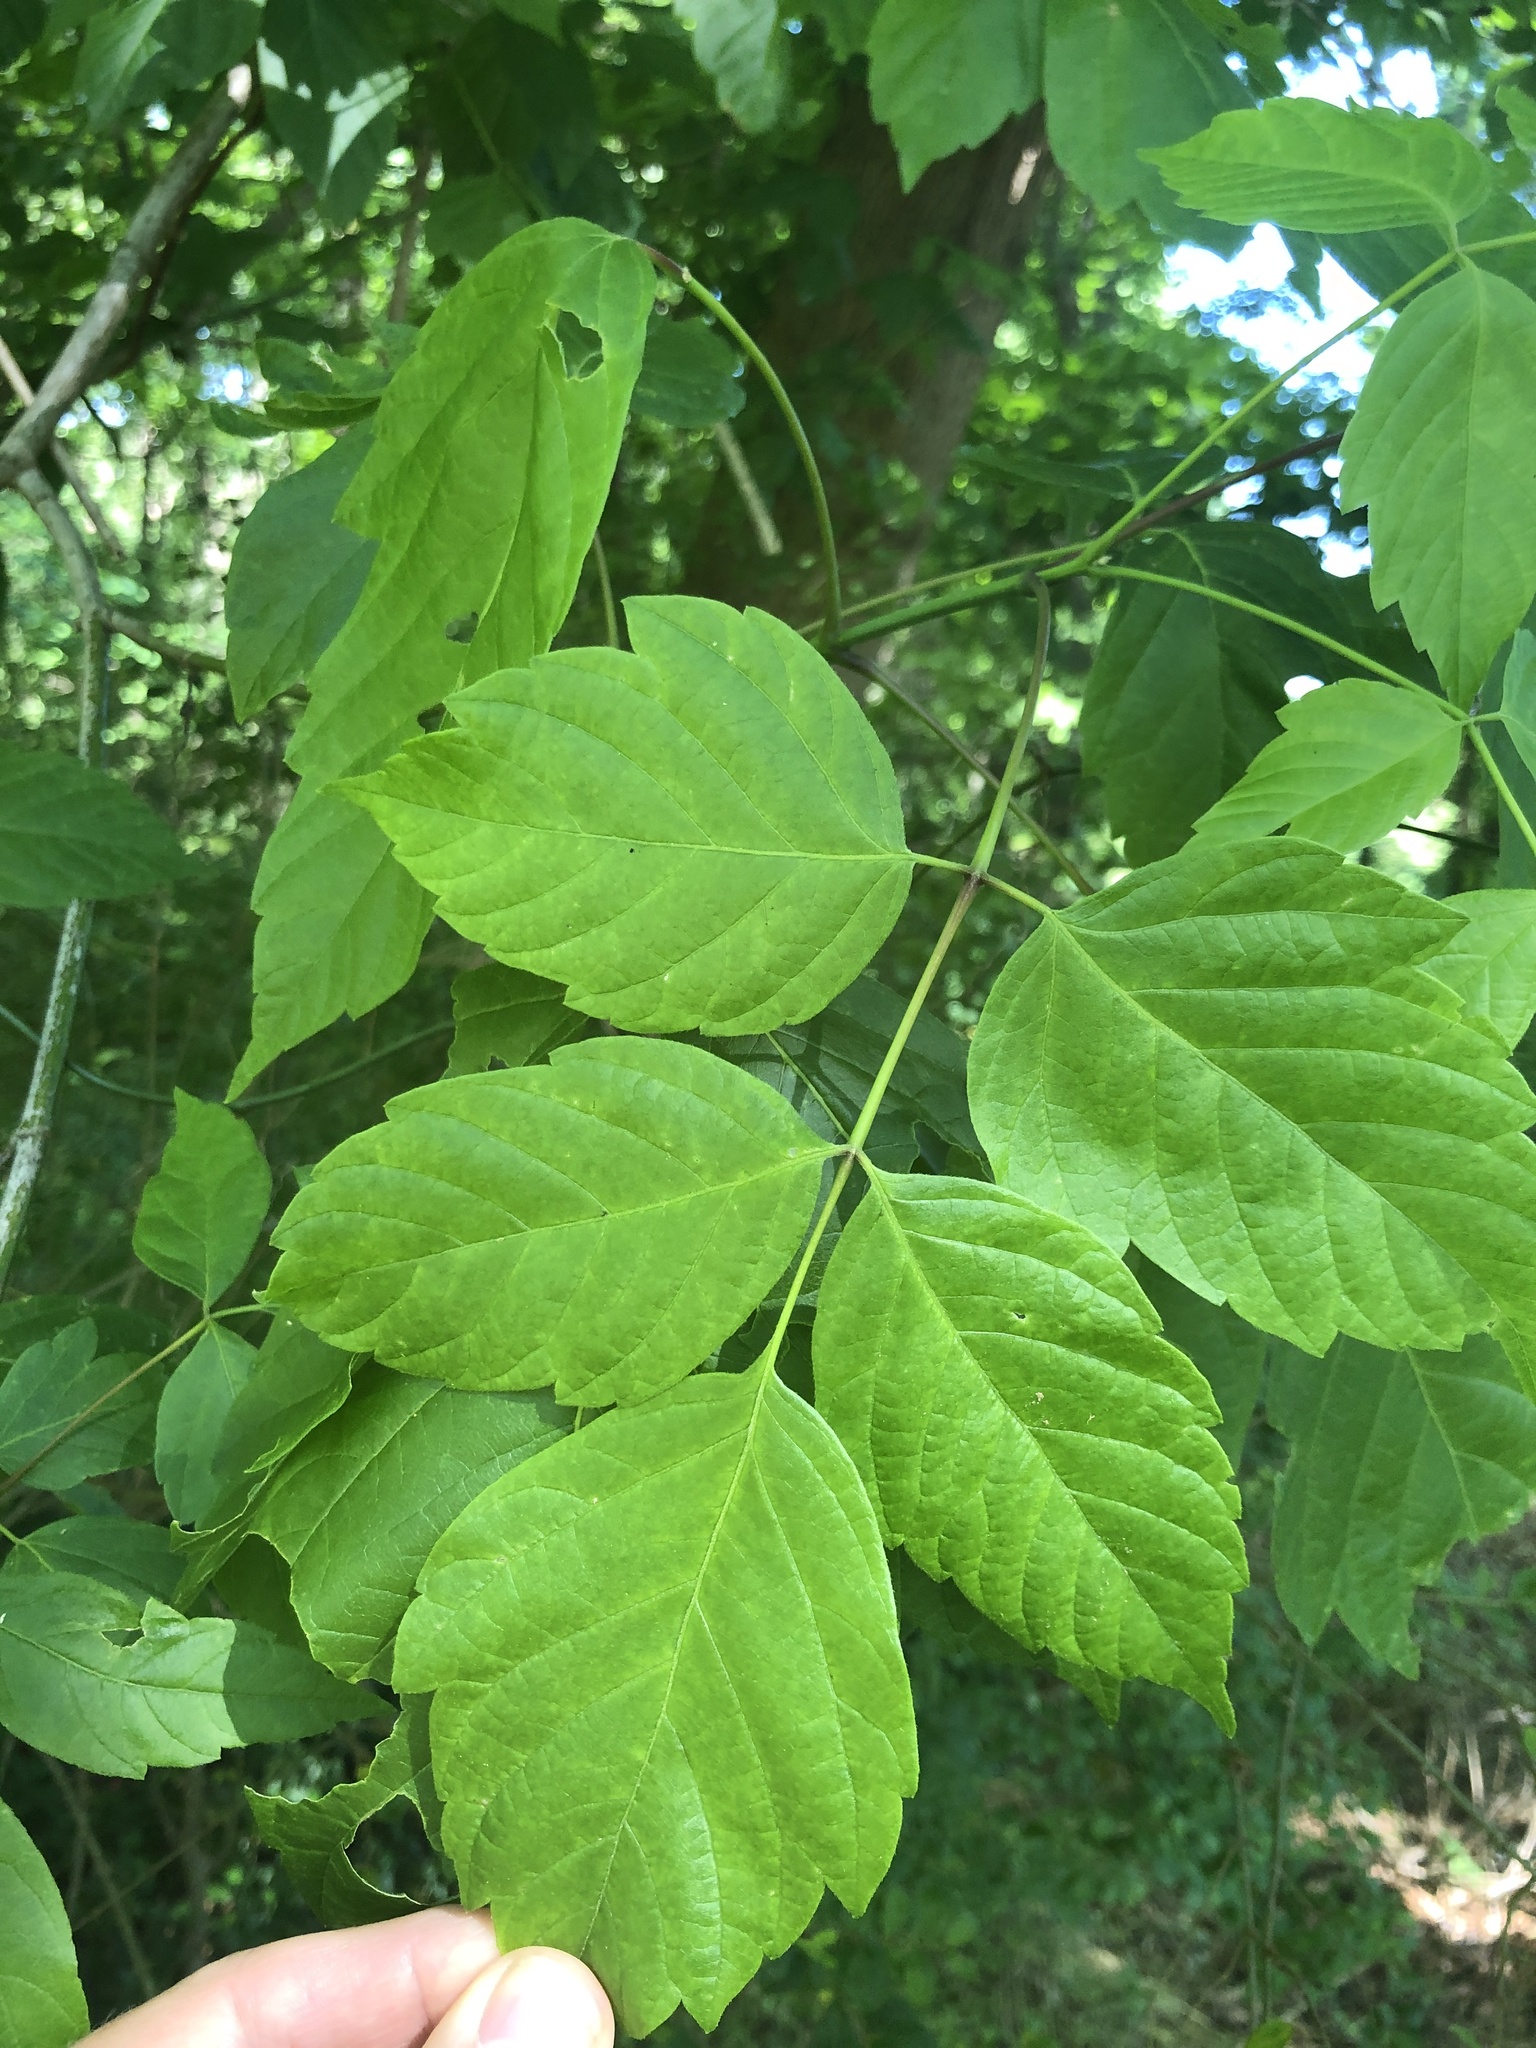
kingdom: Plantae
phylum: Tracheophyta
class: Magnoliopsida
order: Sapindales
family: Sapindaceae
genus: Acer
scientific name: Acer negundo
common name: Ashleaf maple
